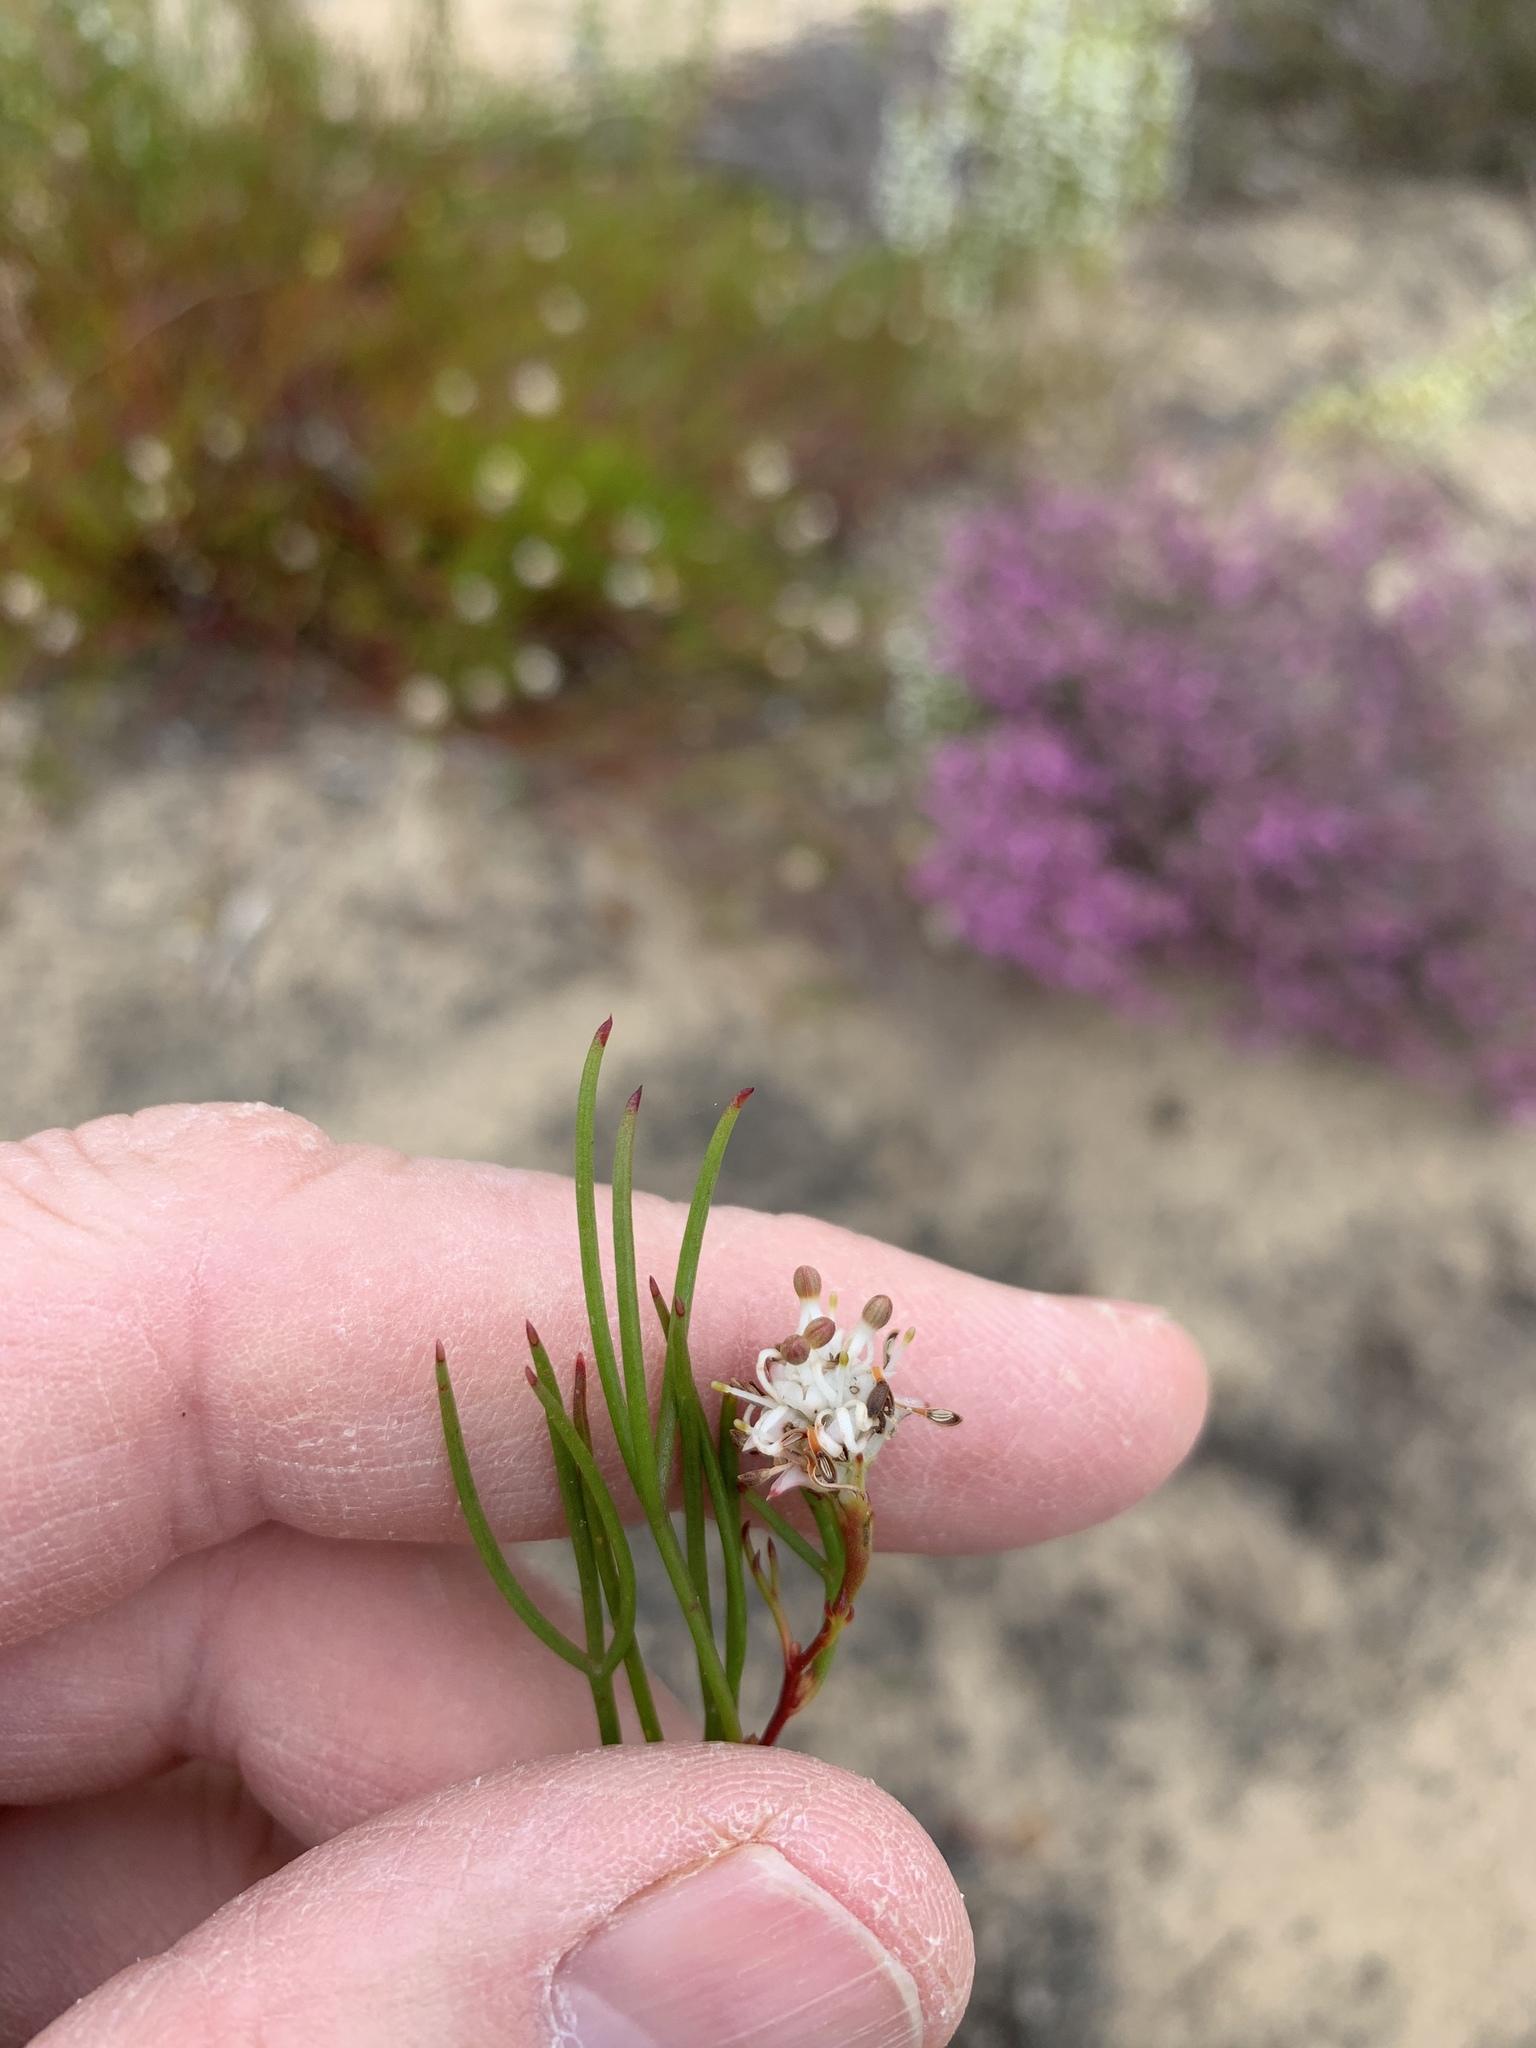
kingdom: Plantae
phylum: Tracheophyta
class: Magnoliopsida
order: Proteales
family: Proteaceae
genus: Serruria
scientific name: Serruria flagellifolia
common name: Houwhoek spiderhead
